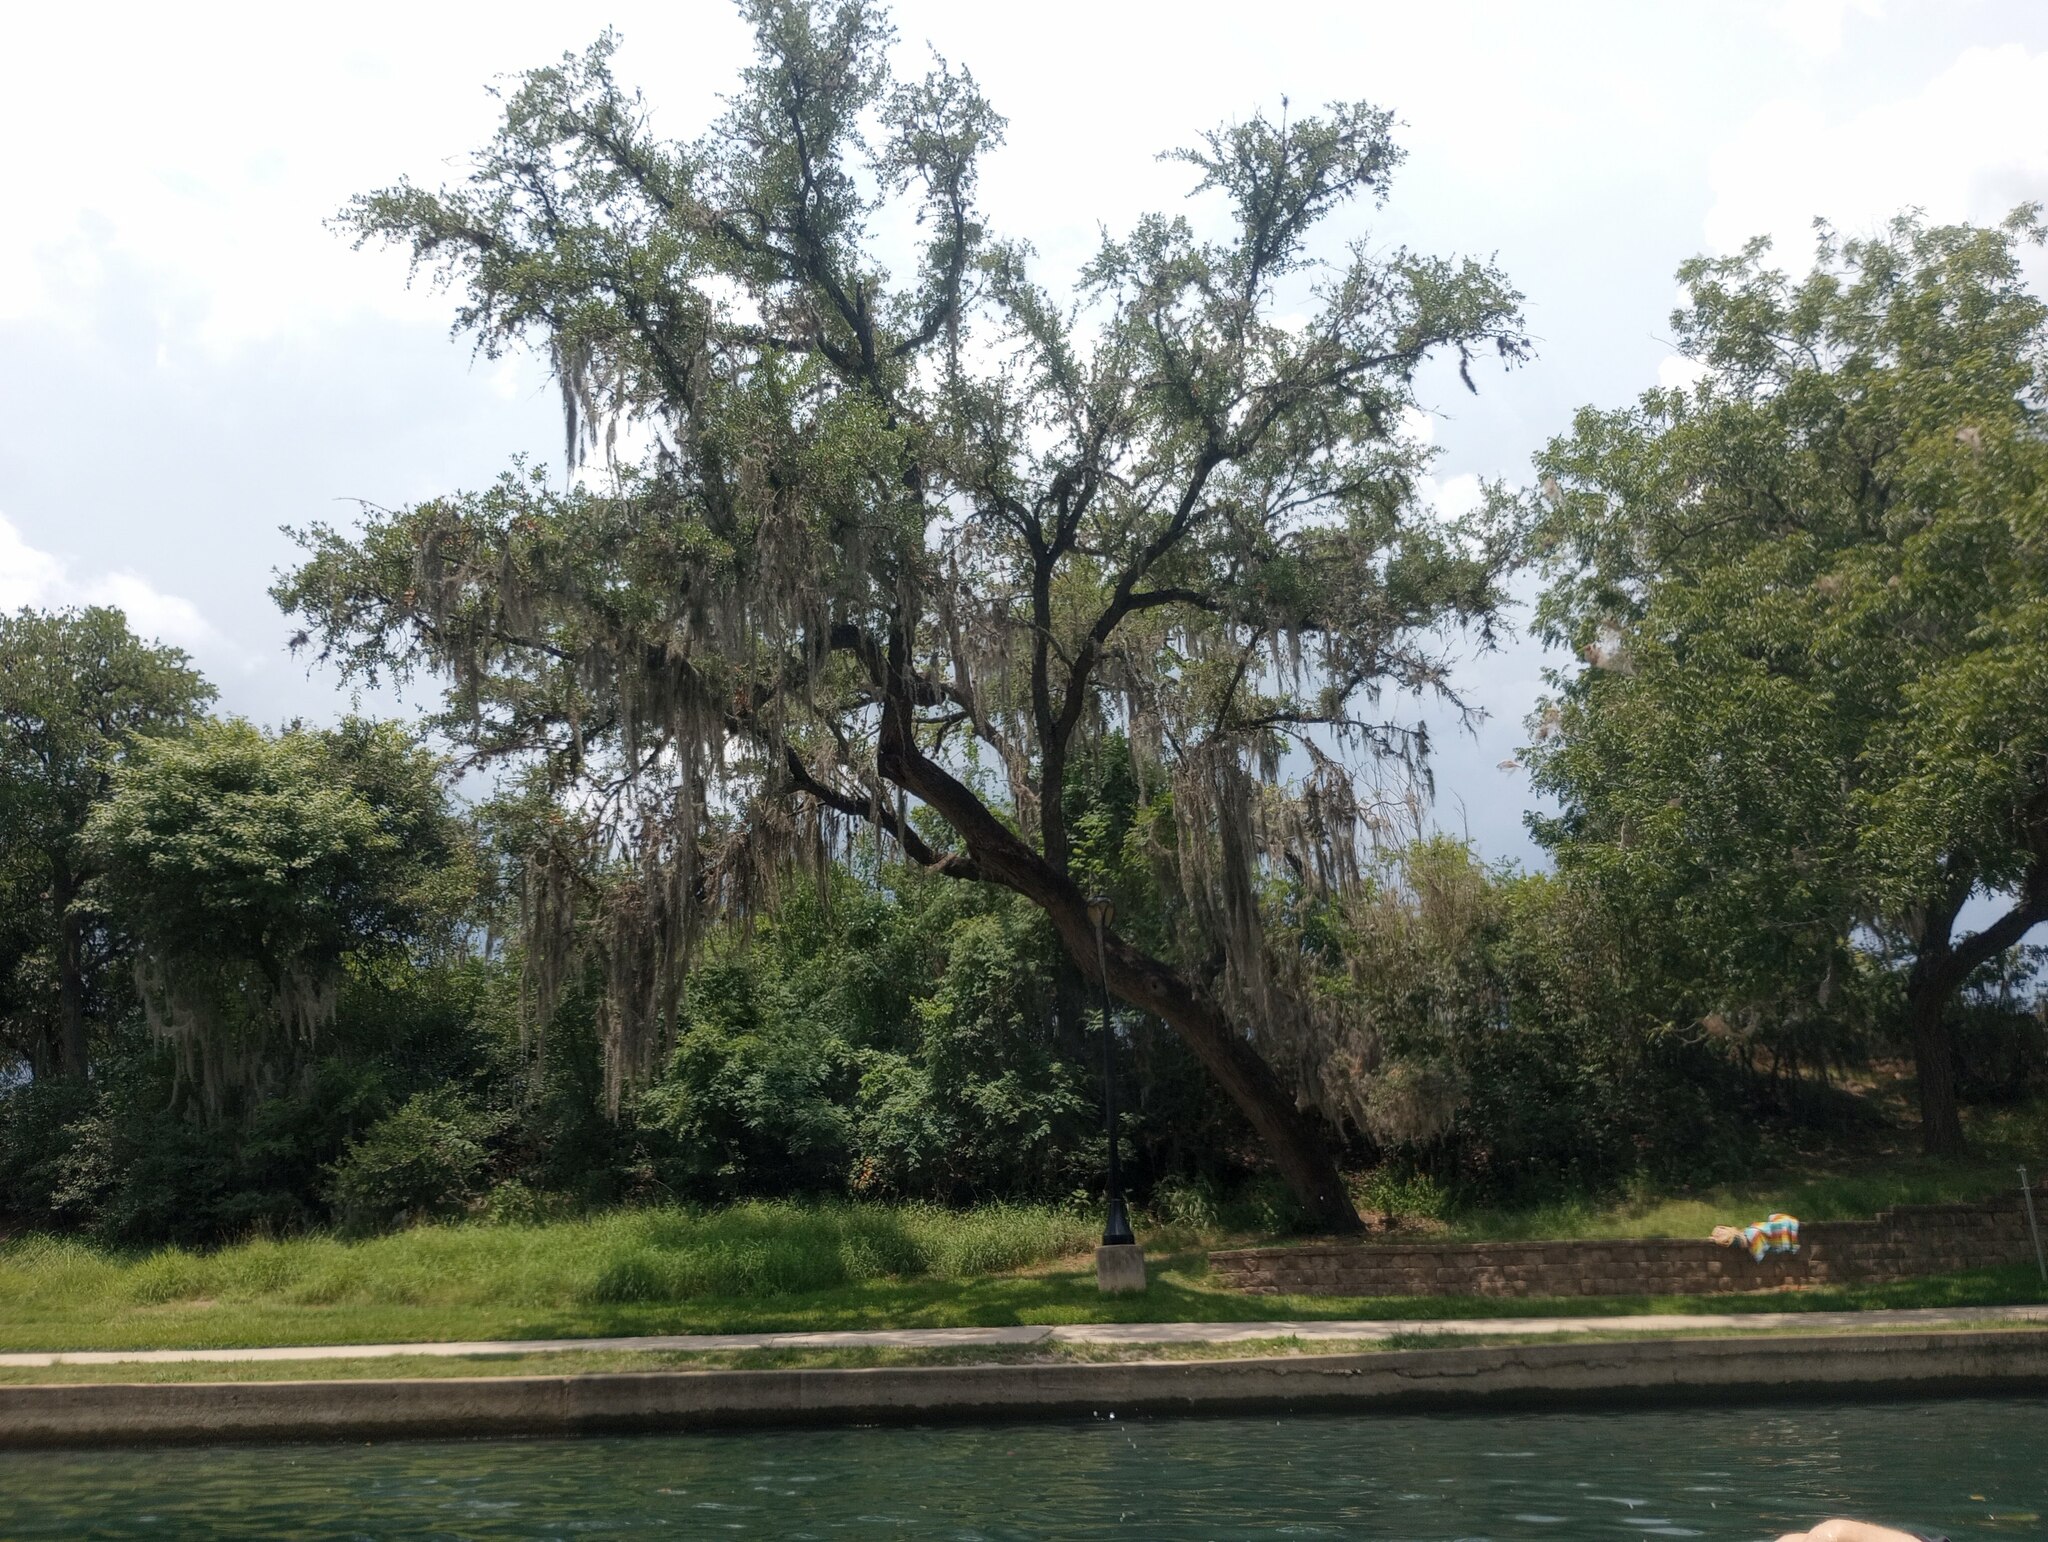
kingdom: Plantae
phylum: Tracheophyta
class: Liliopsida
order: Poales
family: Bromeliaceae
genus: Tillandsia
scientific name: Tillandsia usneoides
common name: Spanish moss
